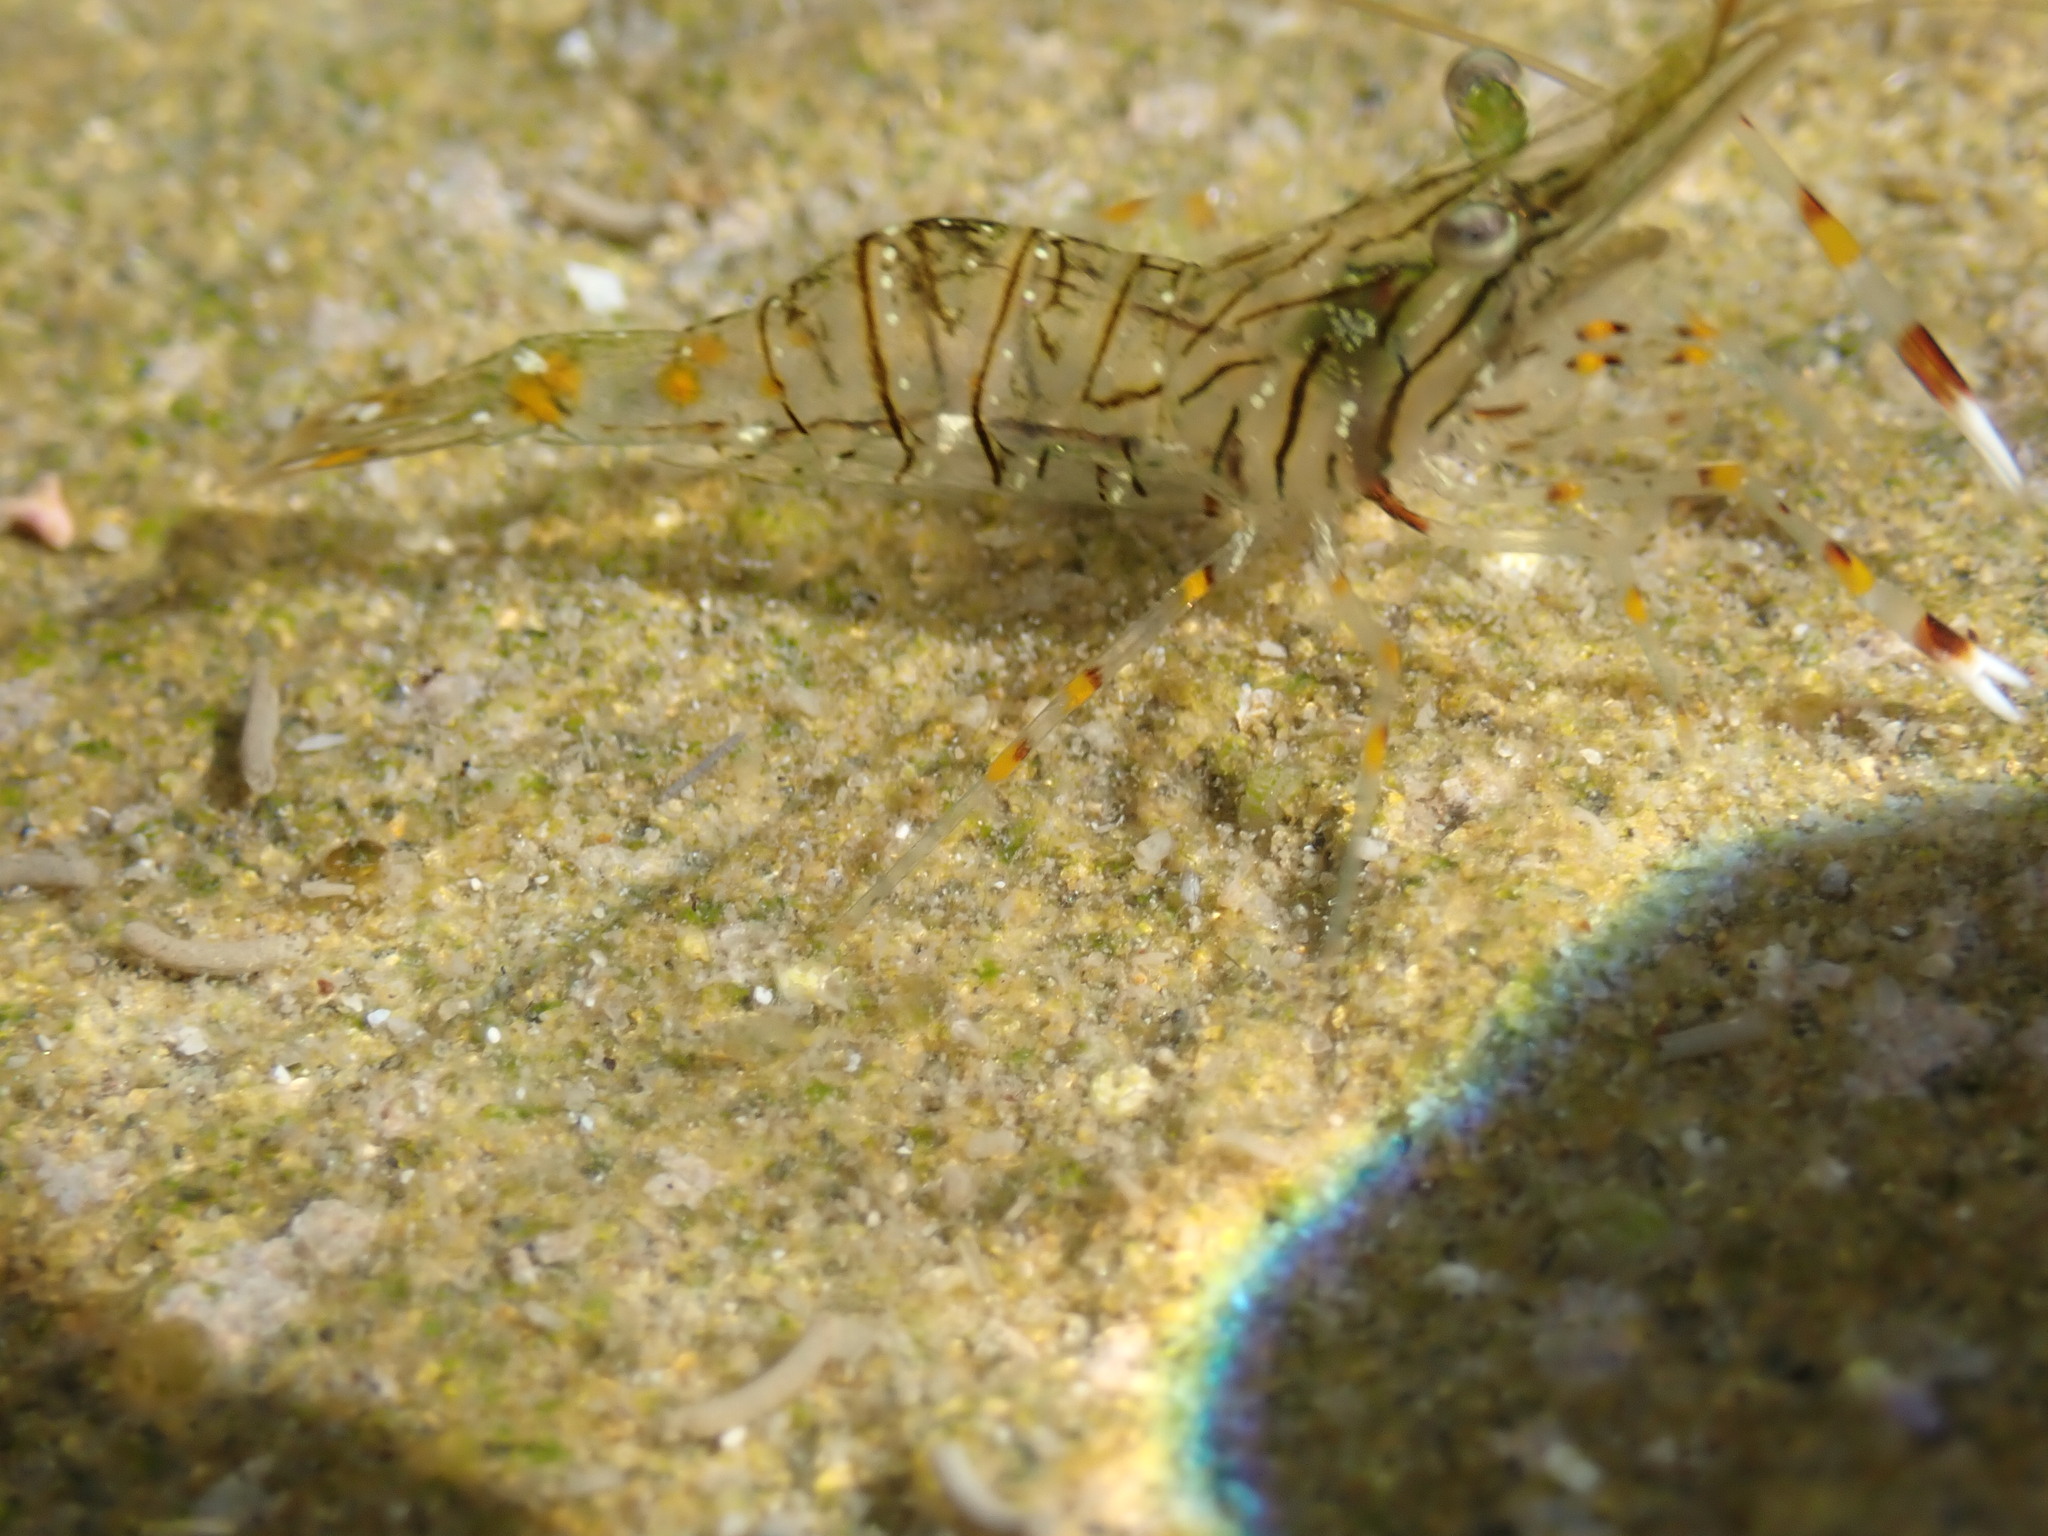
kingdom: Animalia
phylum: Arthropoda
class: Malacostraca
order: Decapoda
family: Palaemonidae
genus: Palaemon
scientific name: Palaemon dolospinus
